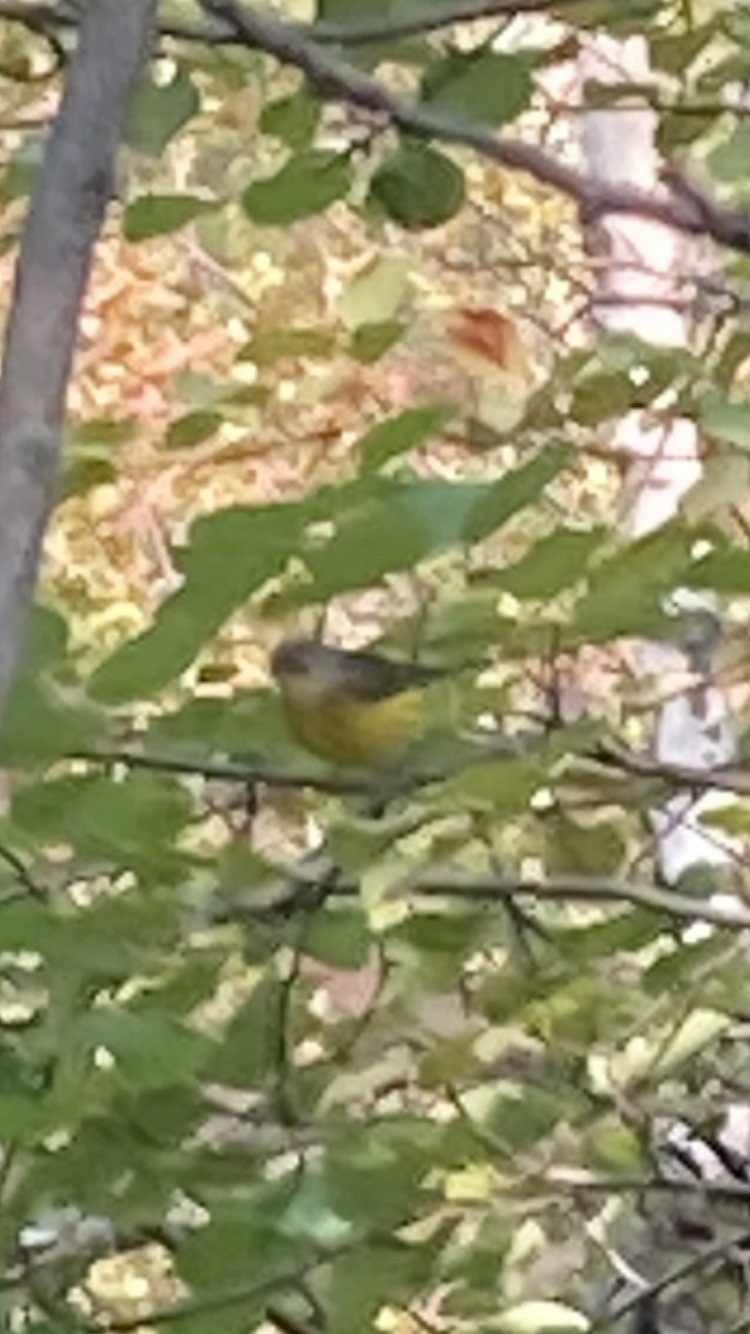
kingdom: Animalia
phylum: Chordata
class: Aves
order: Passeriformes
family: Parulidae
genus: Leiothlypis
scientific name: Leiothlypis ruficapilla
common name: Nashville warbler
